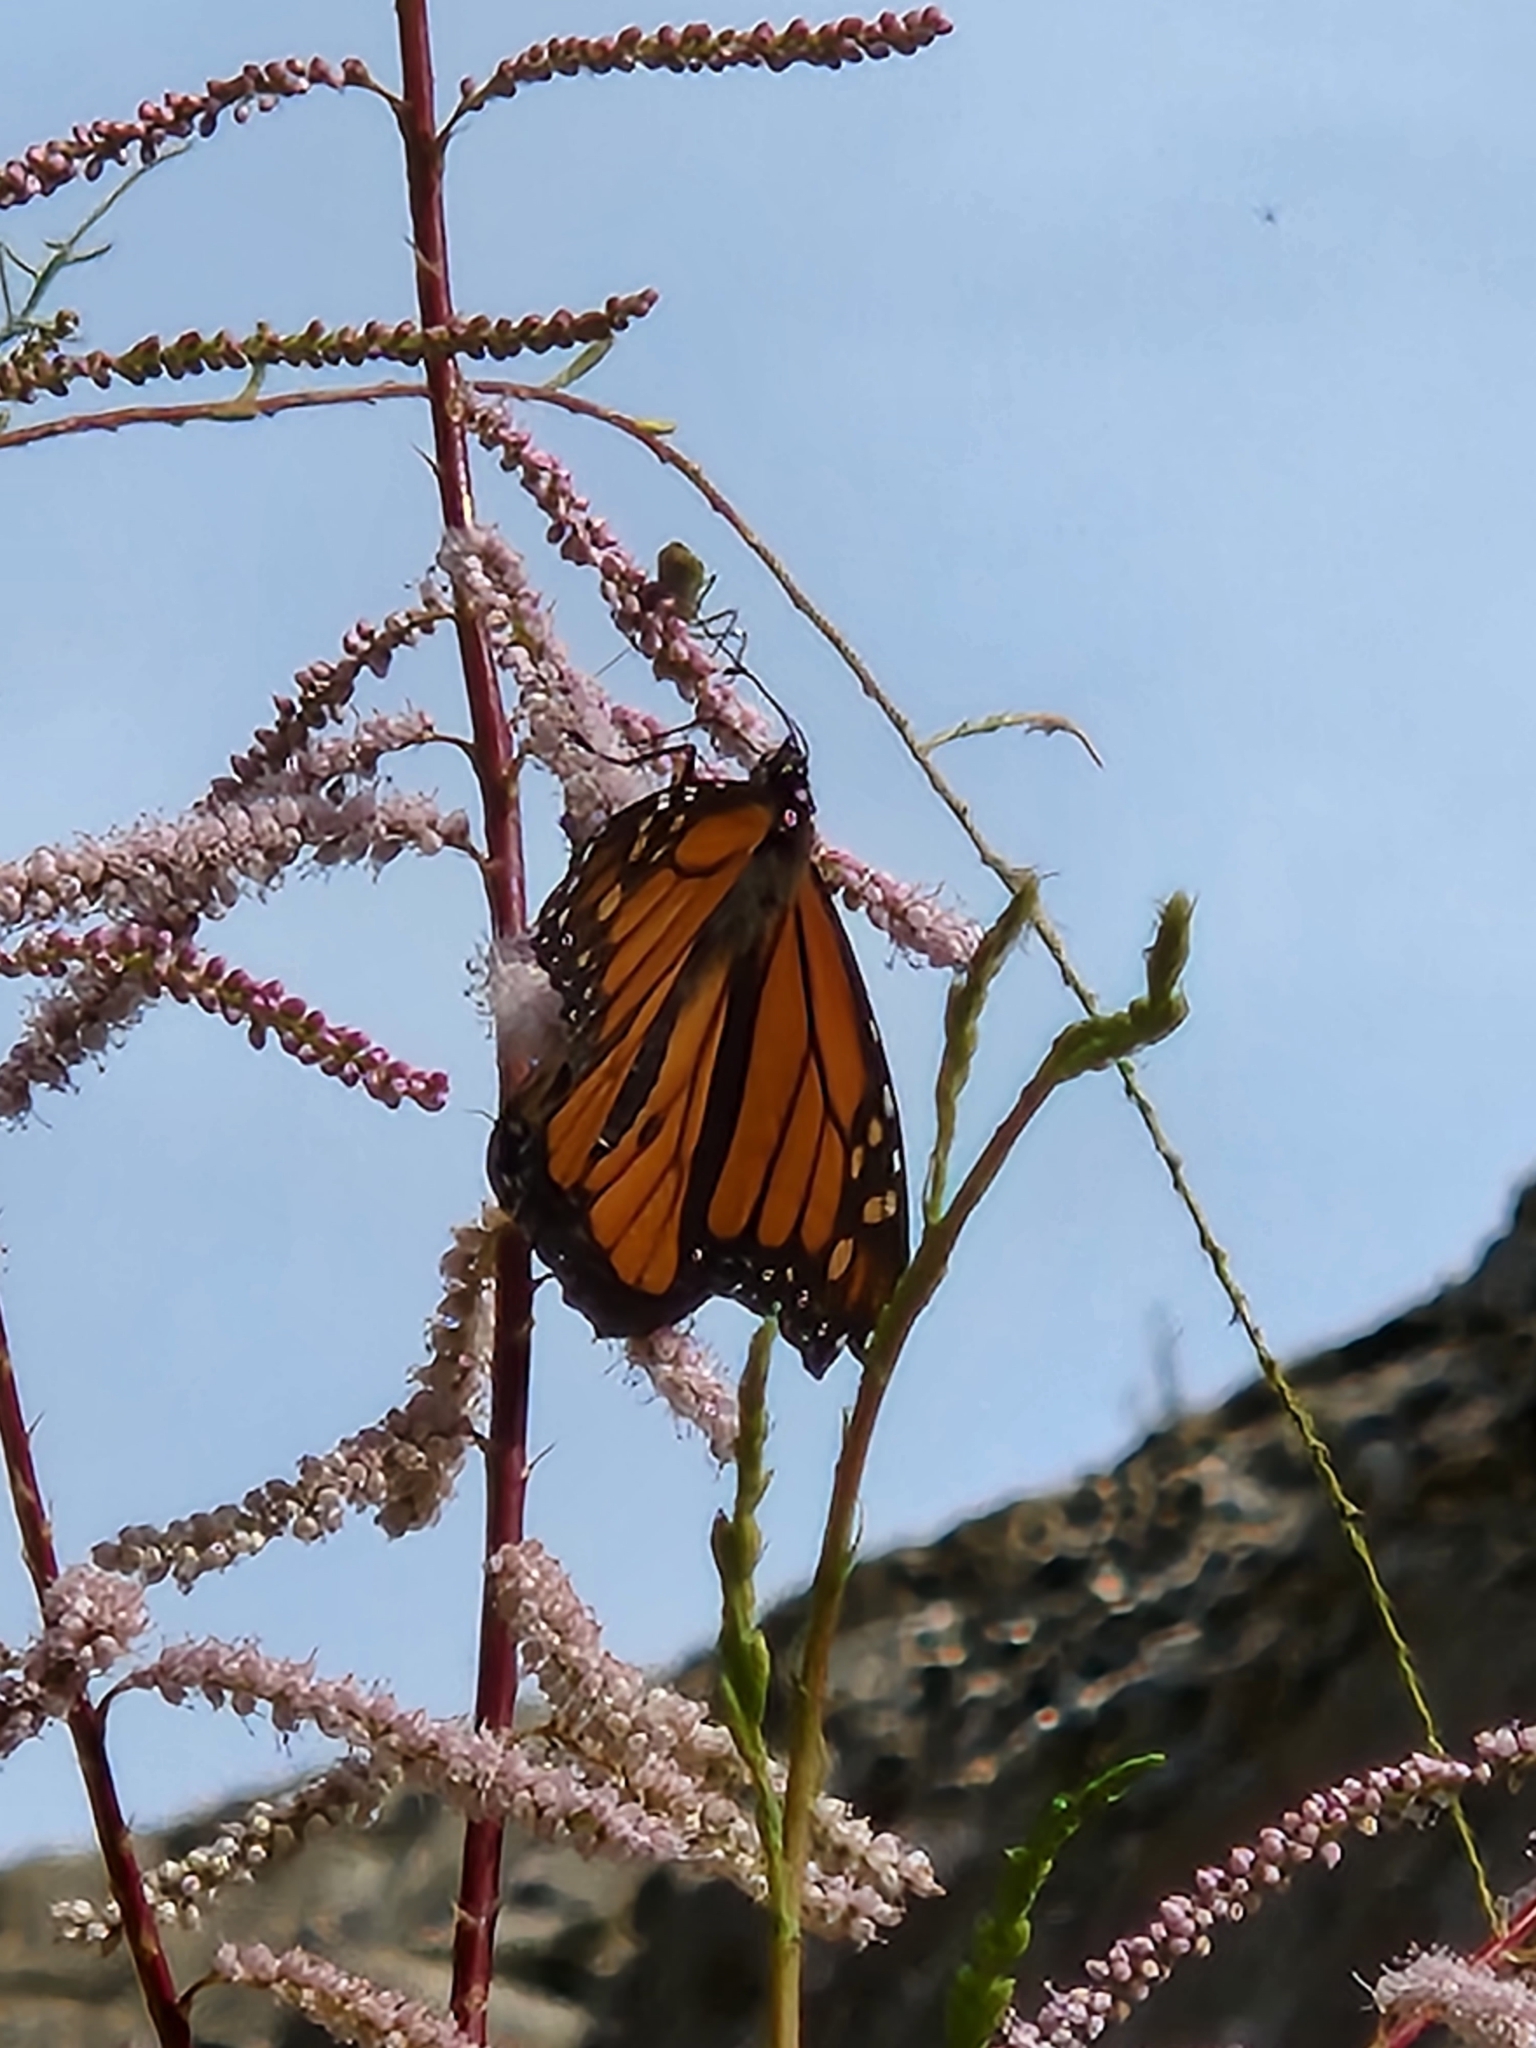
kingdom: Animalia
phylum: Arthropoda
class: Insecta
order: Lepidoptera
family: Nymphalidae
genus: Danaus
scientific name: Danaus plexippus
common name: Monarch
